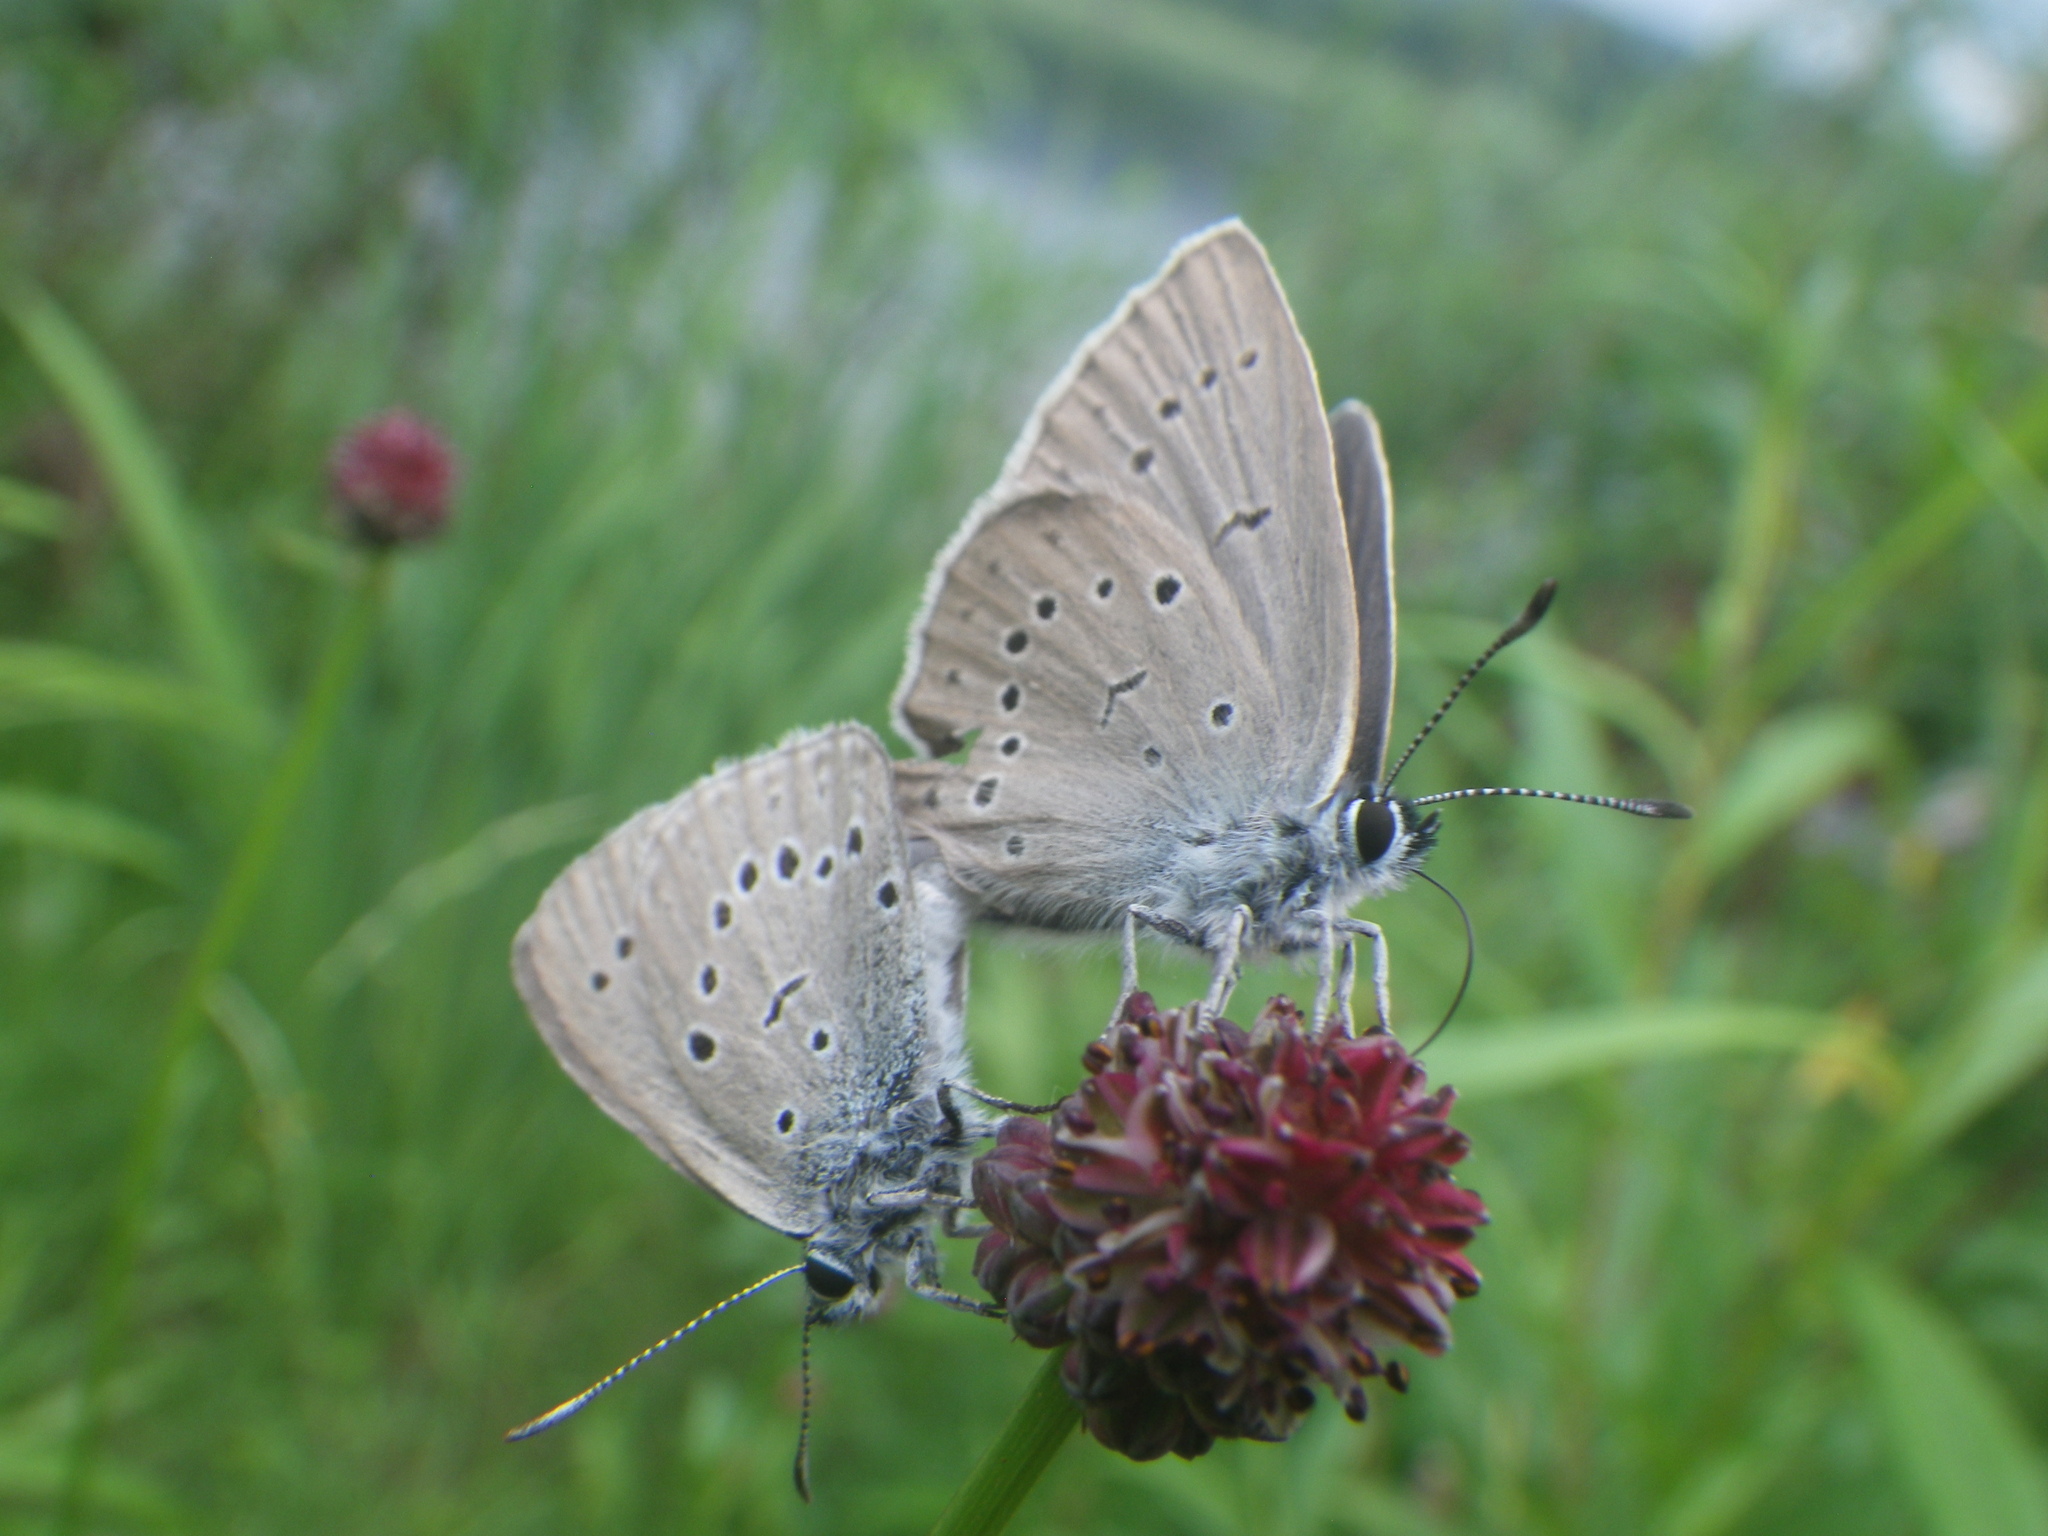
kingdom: Animalia
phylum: Arthropoda
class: Insecta
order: Lepidoptera
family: Lycaenidae
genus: Phengaris
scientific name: Phengaris teleius
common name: Scarce large blue
